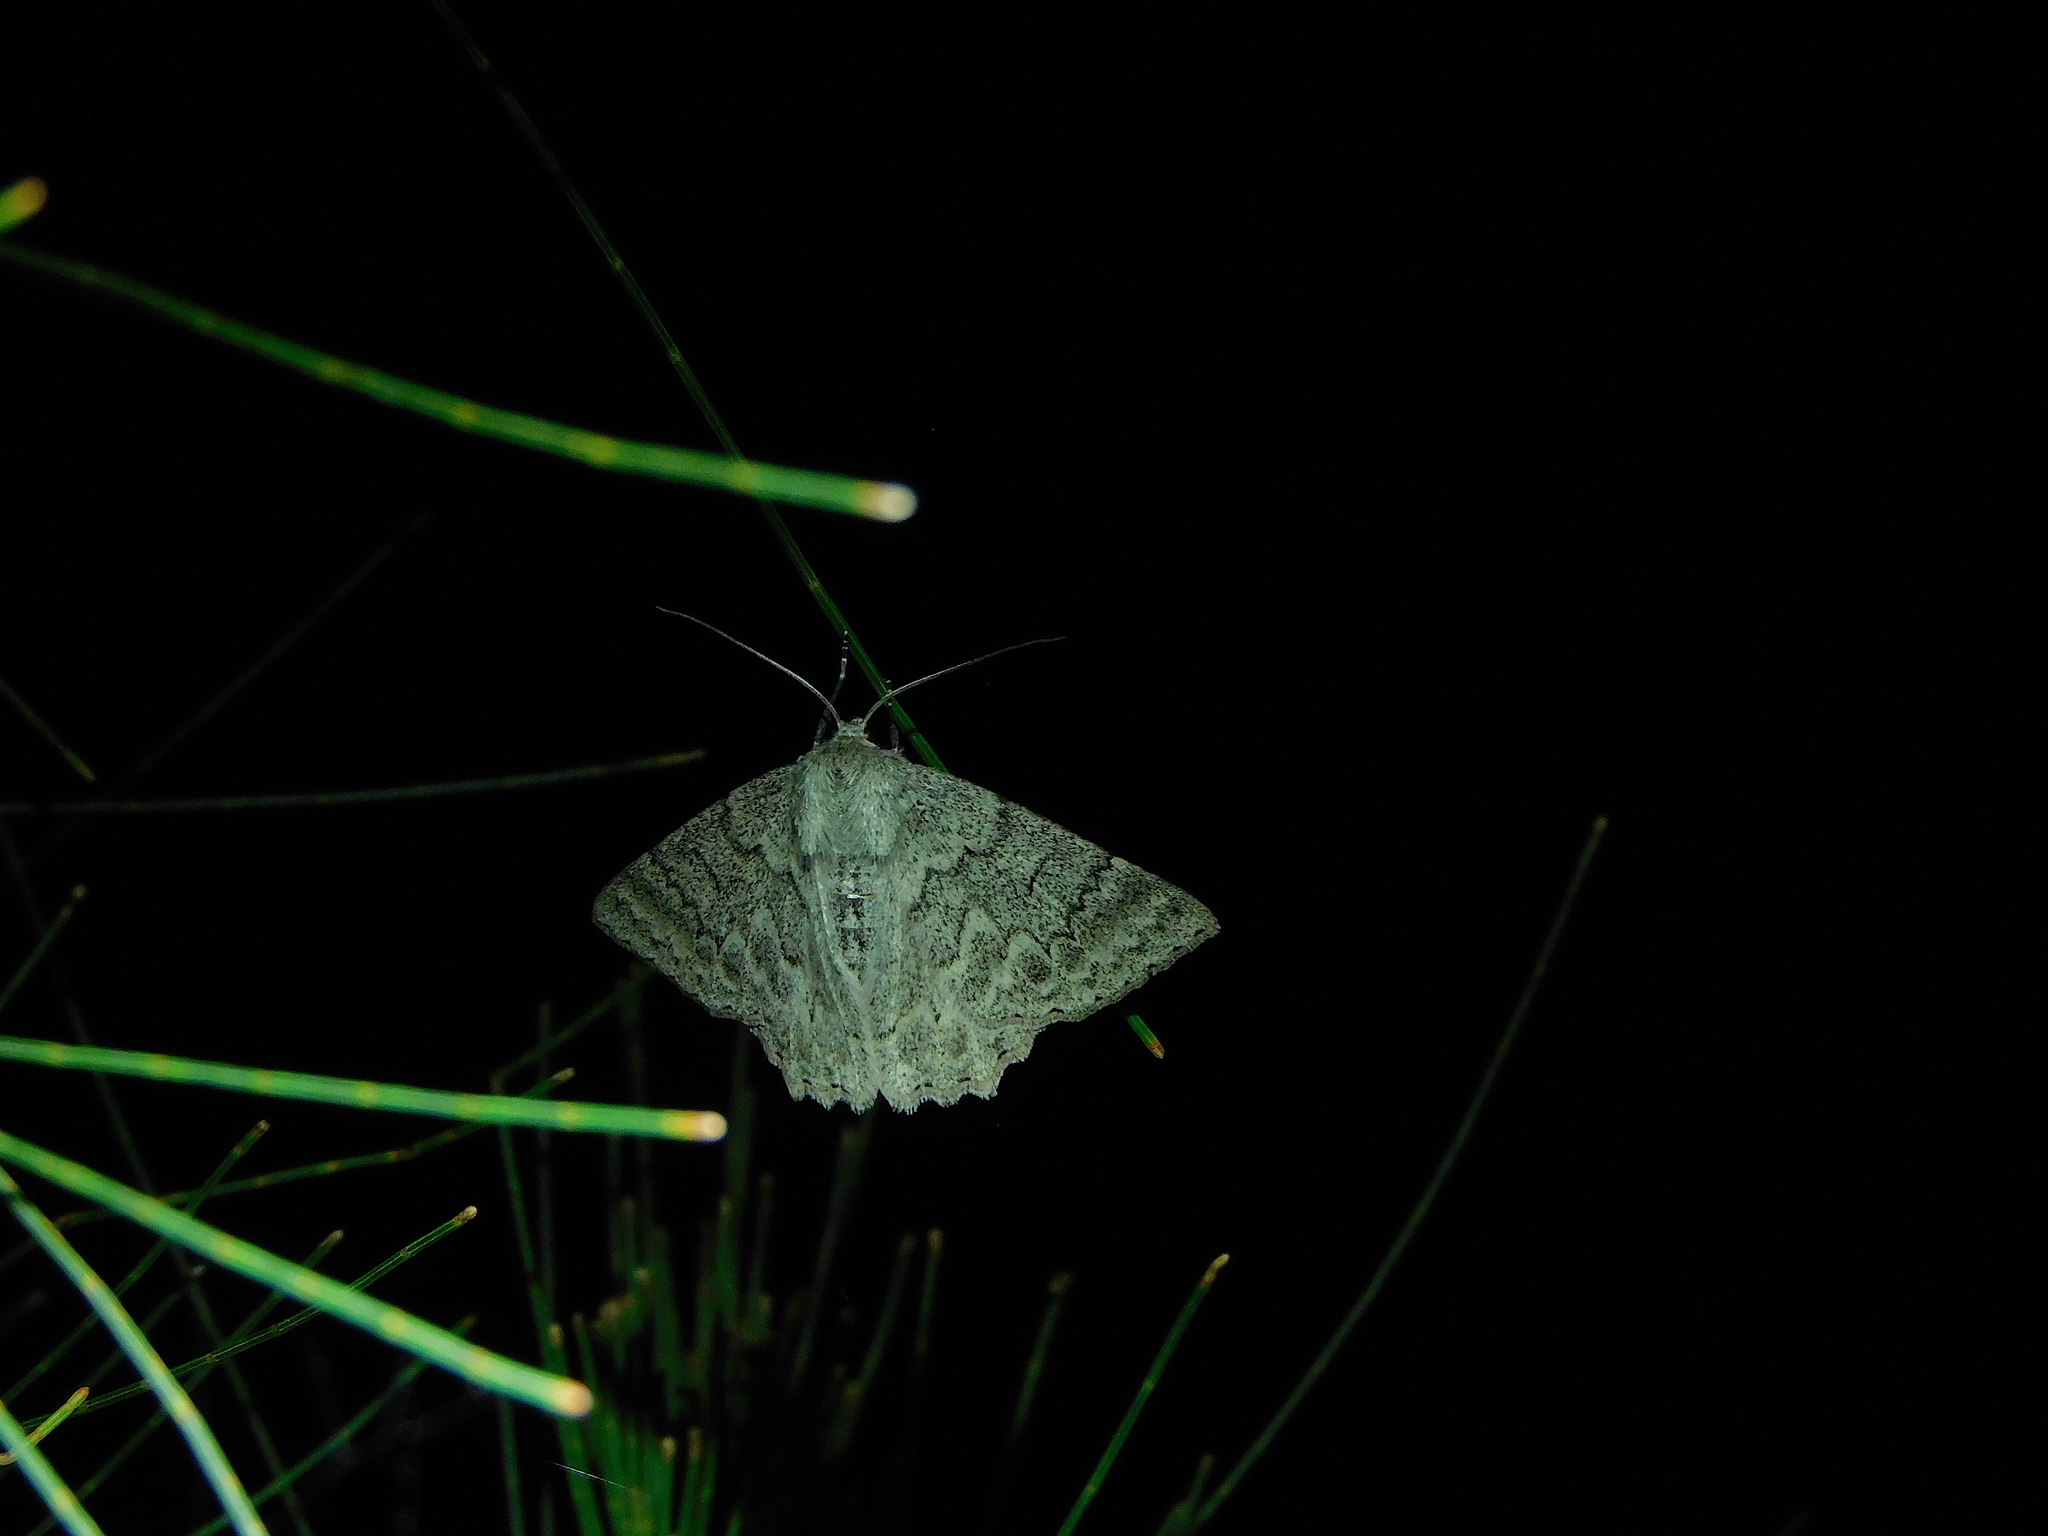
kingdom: Animalia
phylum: Arthropoda
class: Insecta
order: Lepidoptera
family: Geometridae
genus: Crypsiphona
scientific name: Crypsiphona
